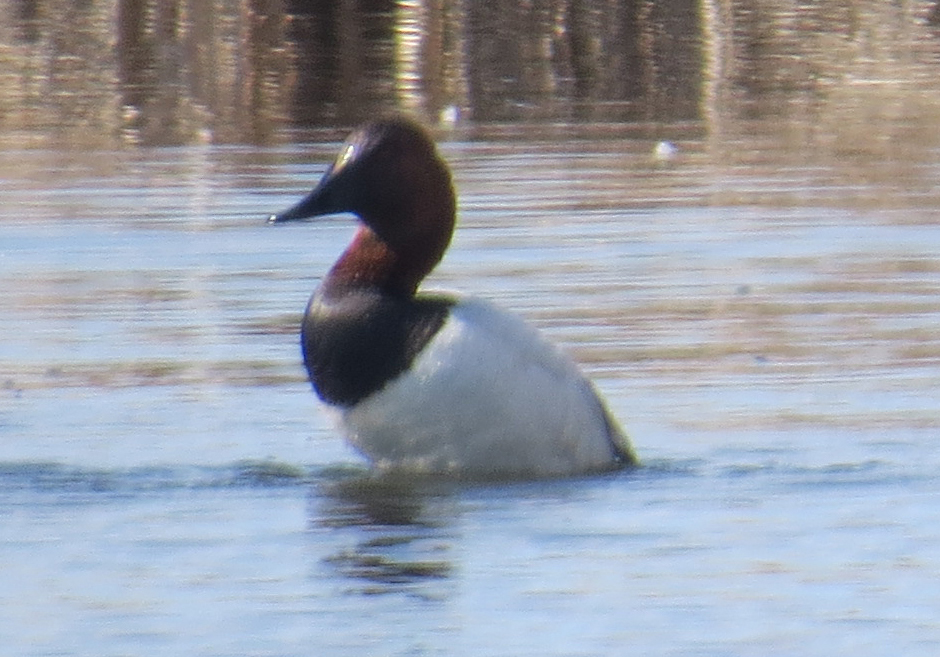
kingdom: Animalia
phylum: Chordata
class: Aves
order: Anseriformes
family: Anatidae
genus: Aythya
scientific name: Aythya valisineria
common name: Canvasback
